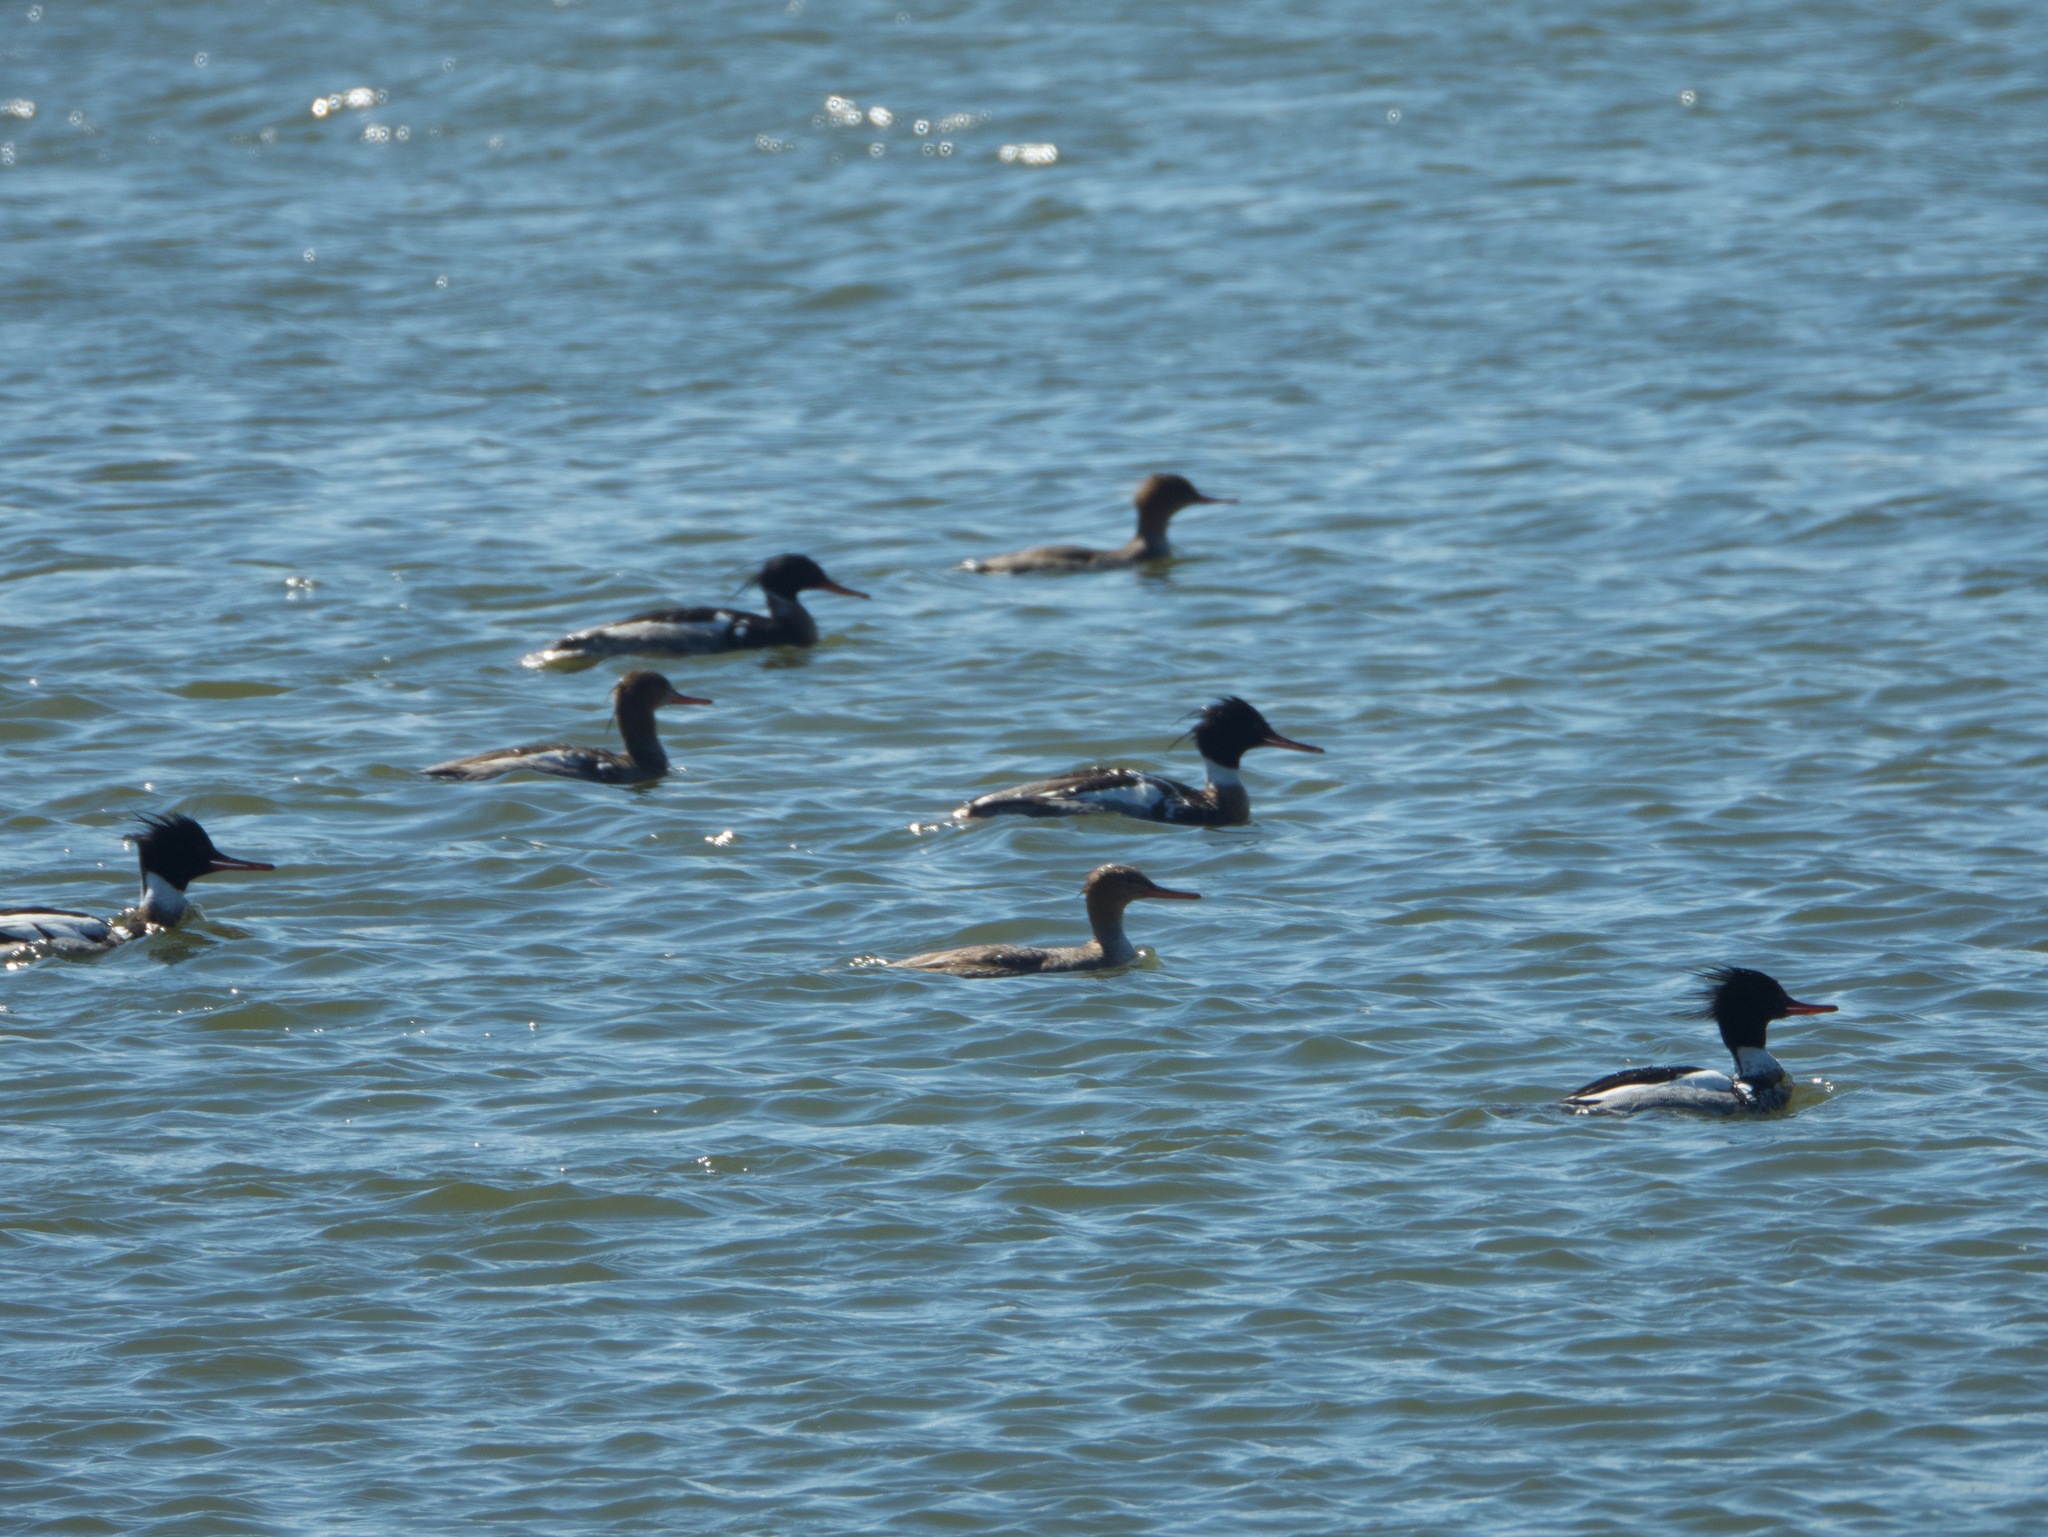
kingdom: Animalia
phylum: Chordata
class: Aves
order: Anseriformes
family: Anatidae
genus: Mergus
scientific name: Mergus serrator
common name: Red-breasted merganser
